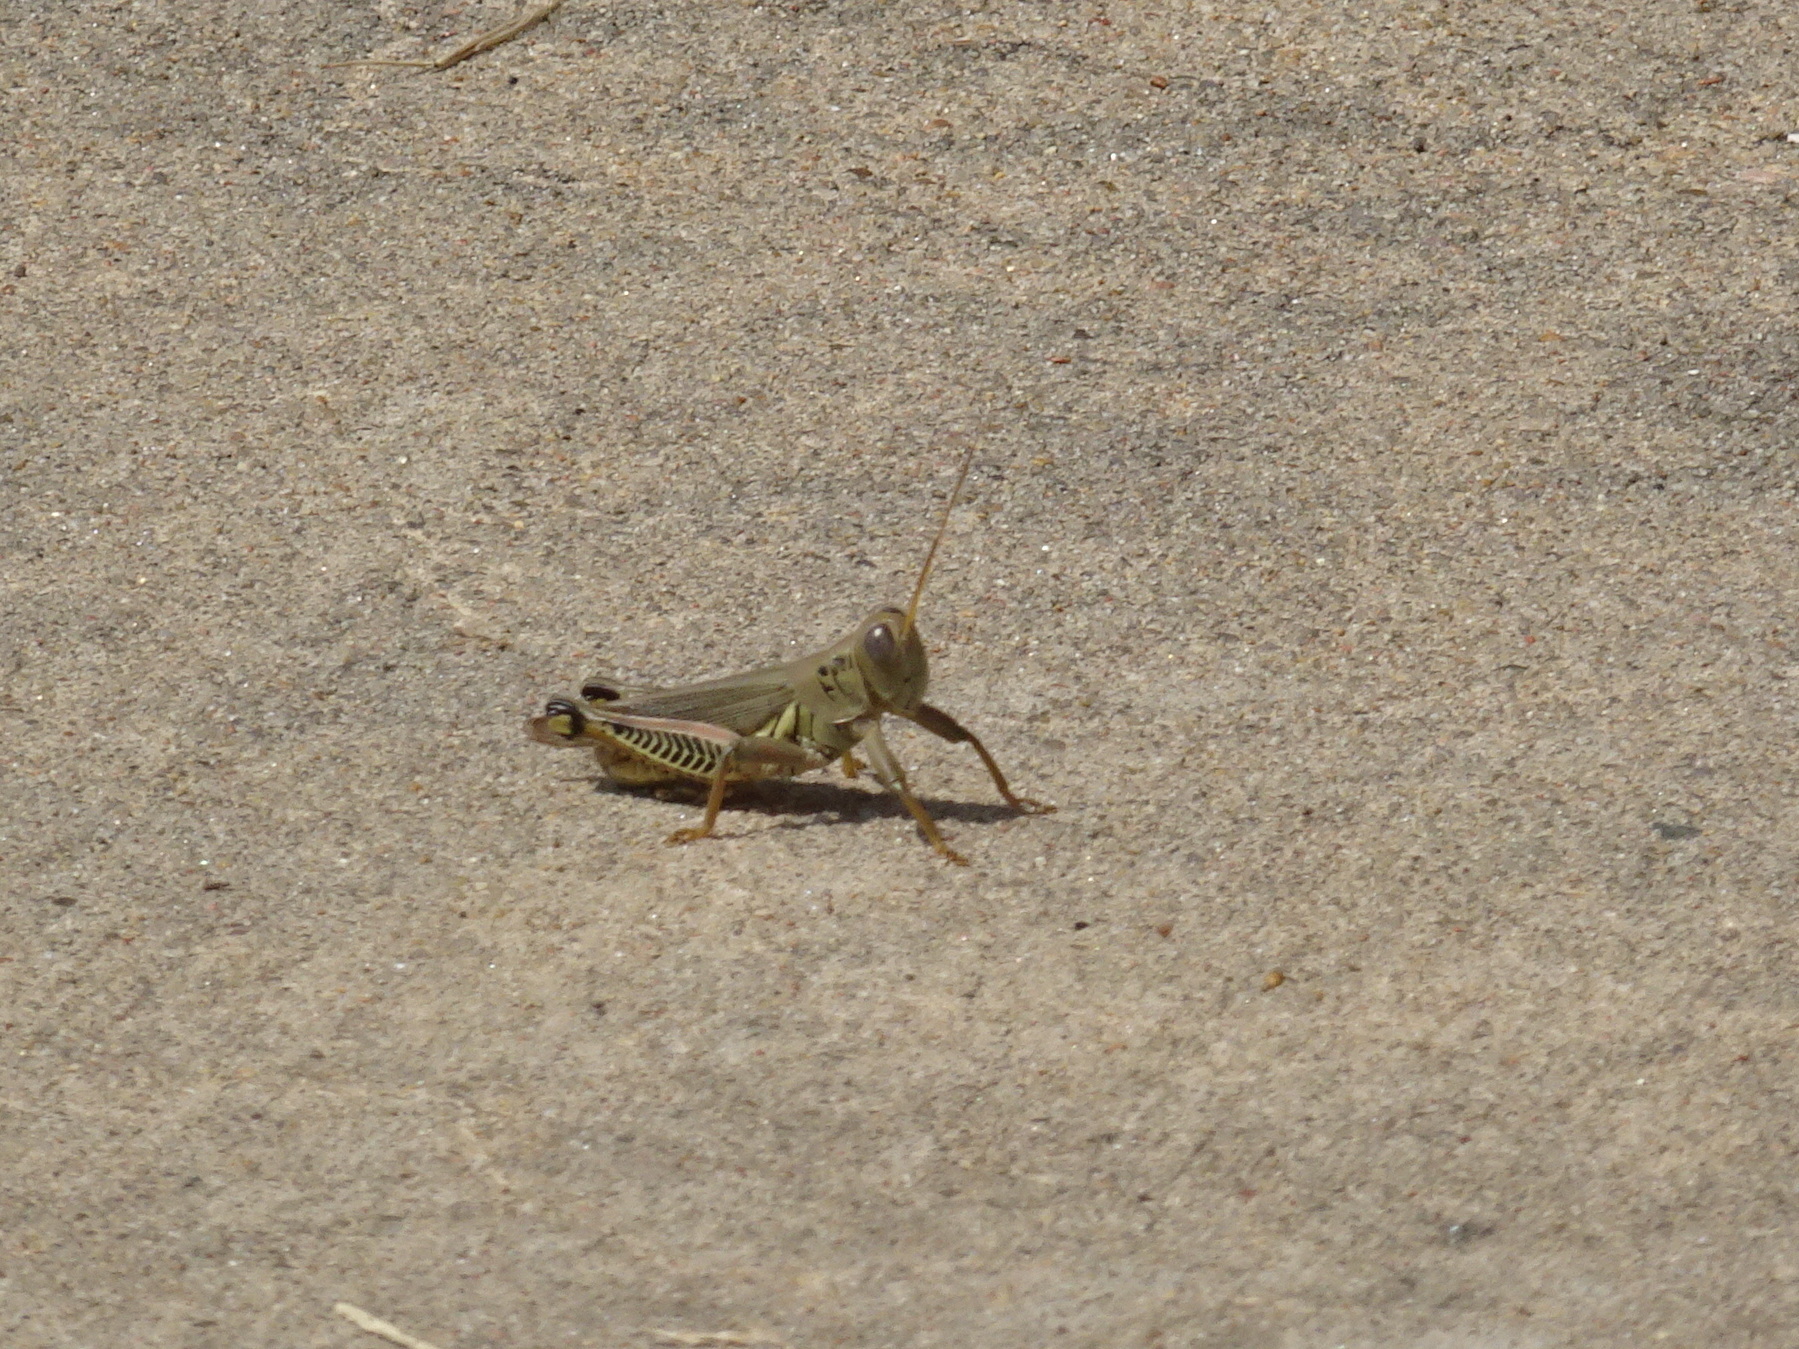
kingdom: Animalia
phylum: Arthropoda
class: Insecta
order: Orthoptera
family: Acrididae
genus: Melanoplus
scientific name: Melanoplus differentialis
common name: Differential grasshopper
